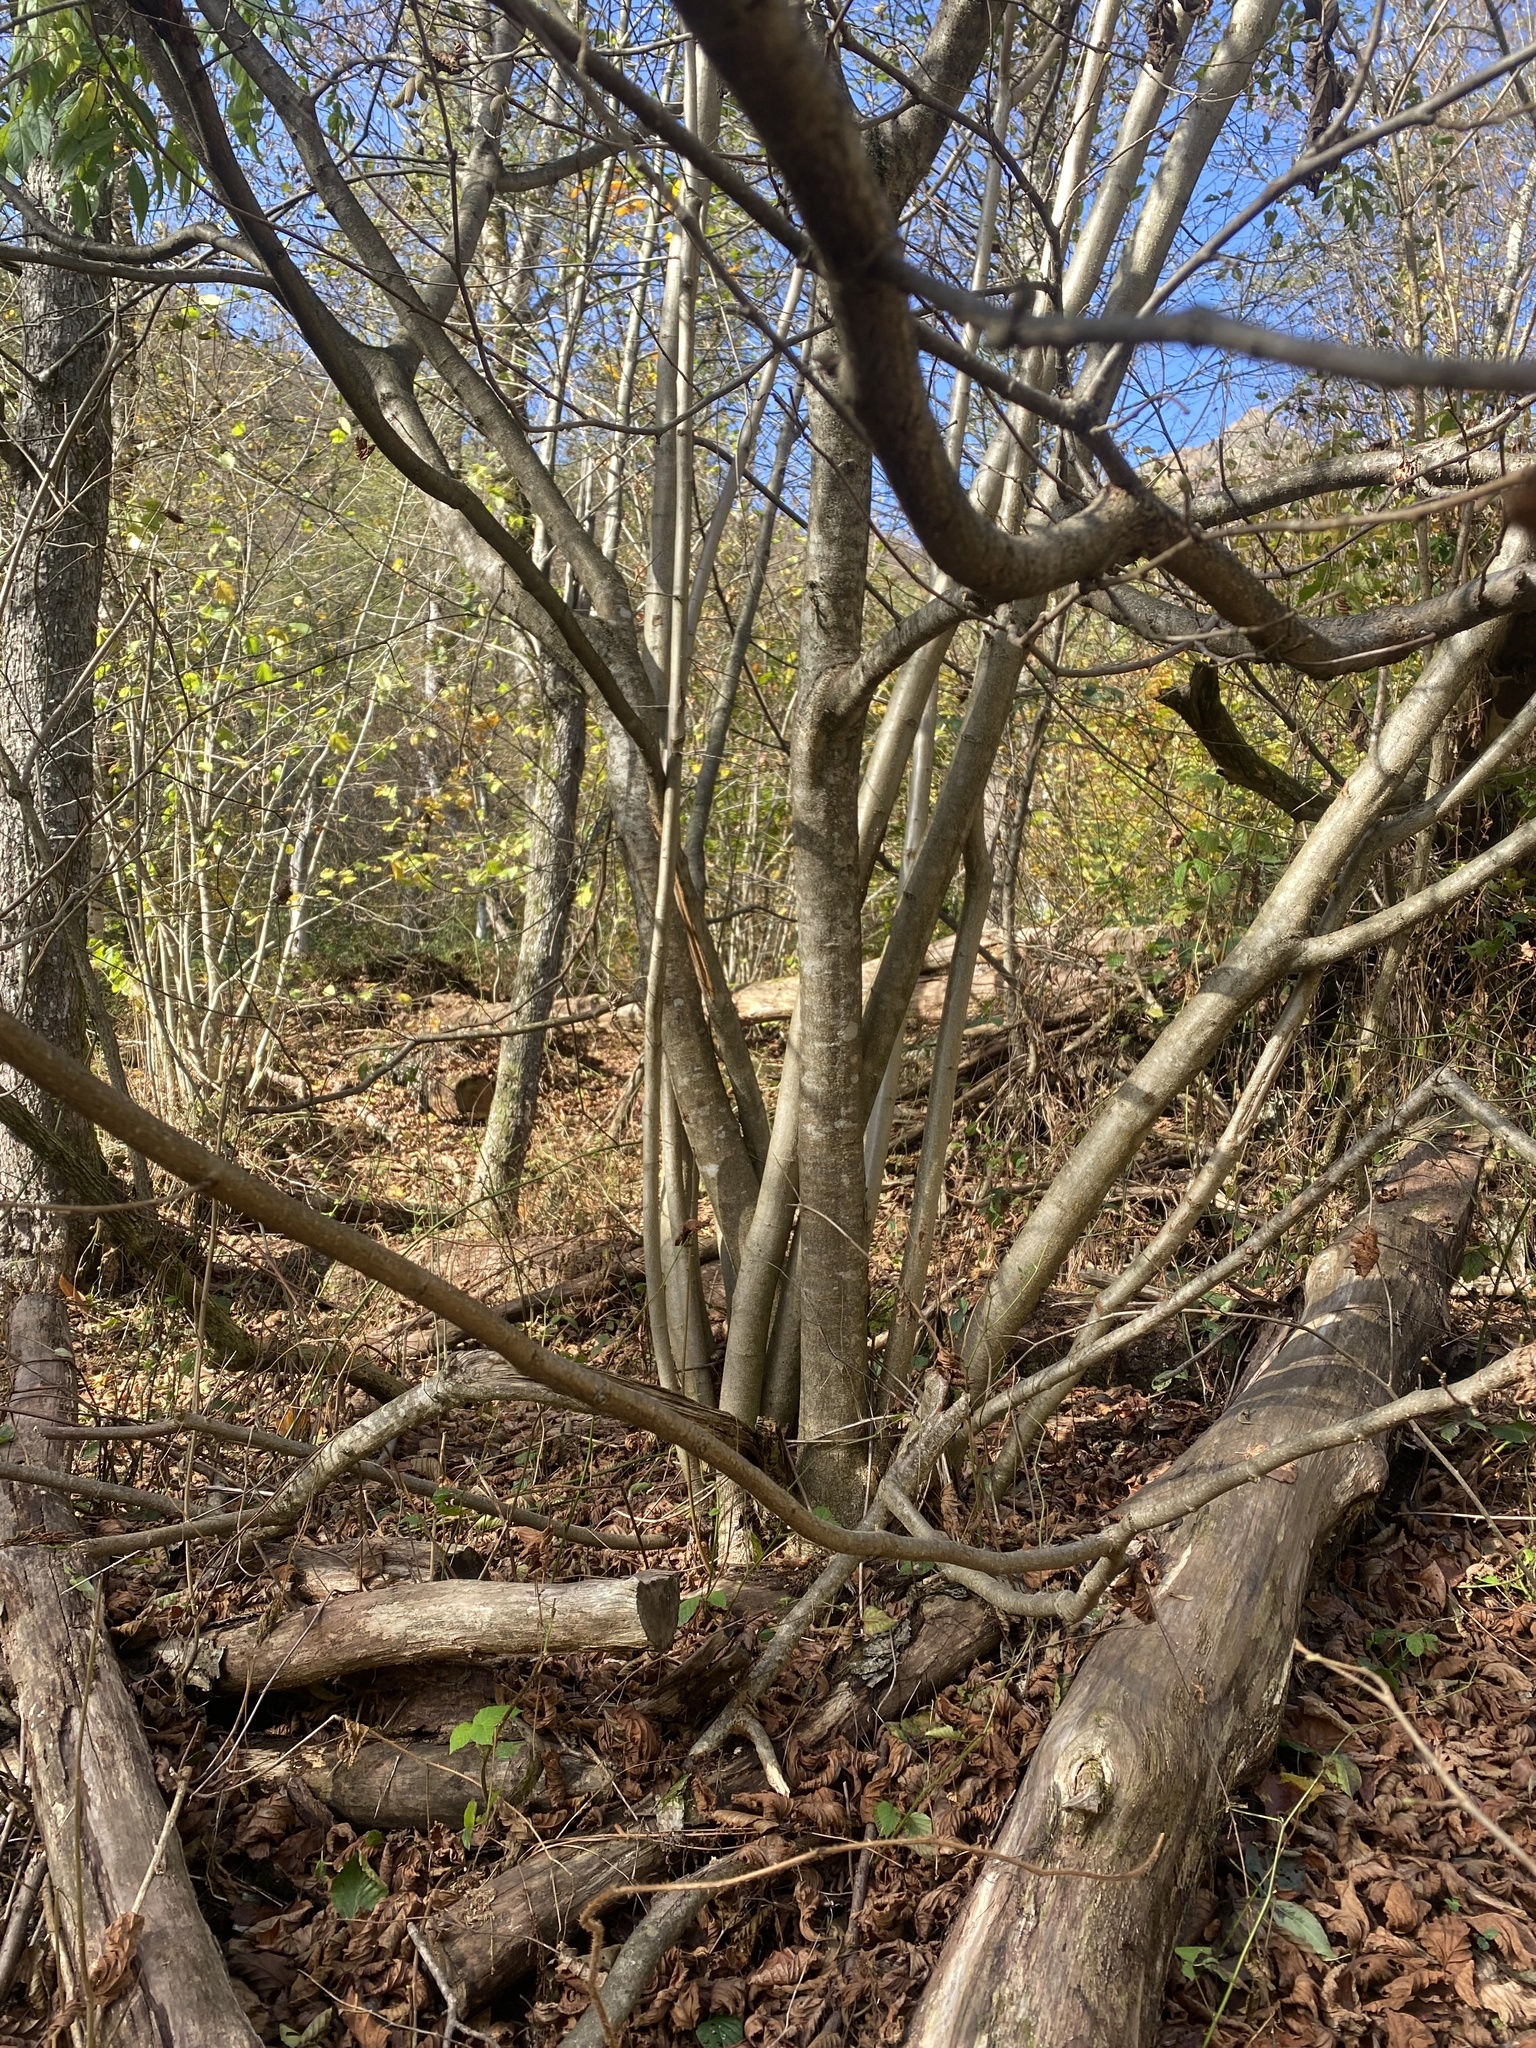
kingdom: Plantae
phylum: Tracheophyta
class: Magnoliopsida
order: Fagales
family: Betulaceae
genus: Corylus
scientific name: Corylus avellana
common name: European hazel
